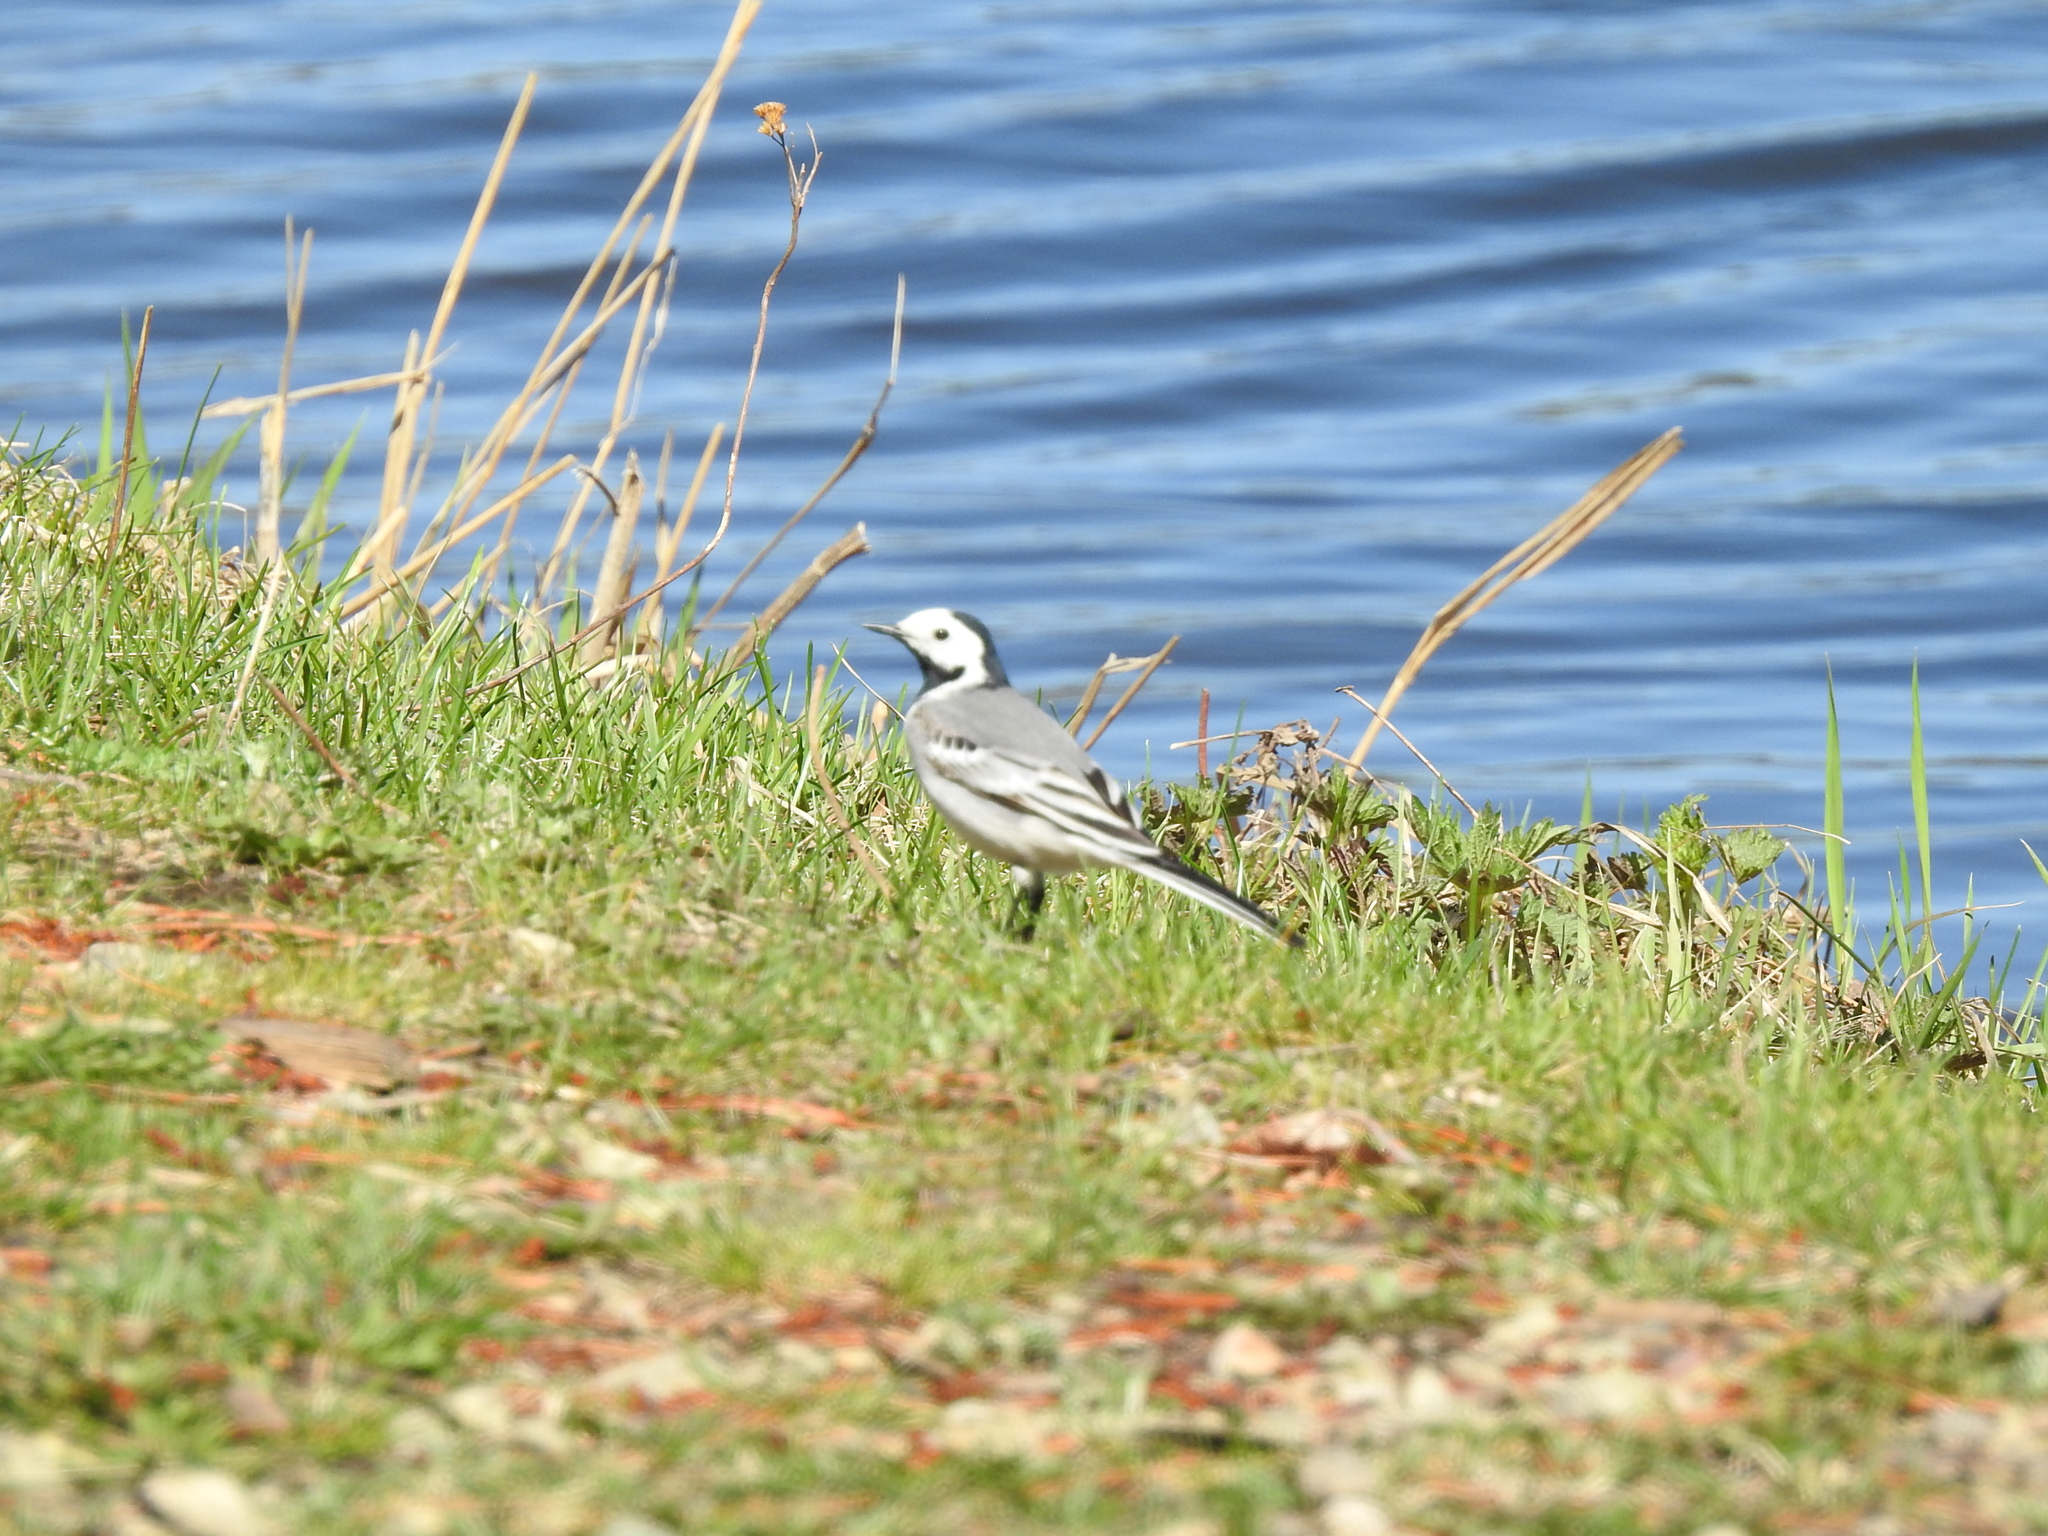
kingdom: Animalia
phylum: Chordata
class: Aves
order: Passeriformes
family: Motacillidae
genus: Motacilla
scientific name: Motacilla alba
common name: White wagtail
